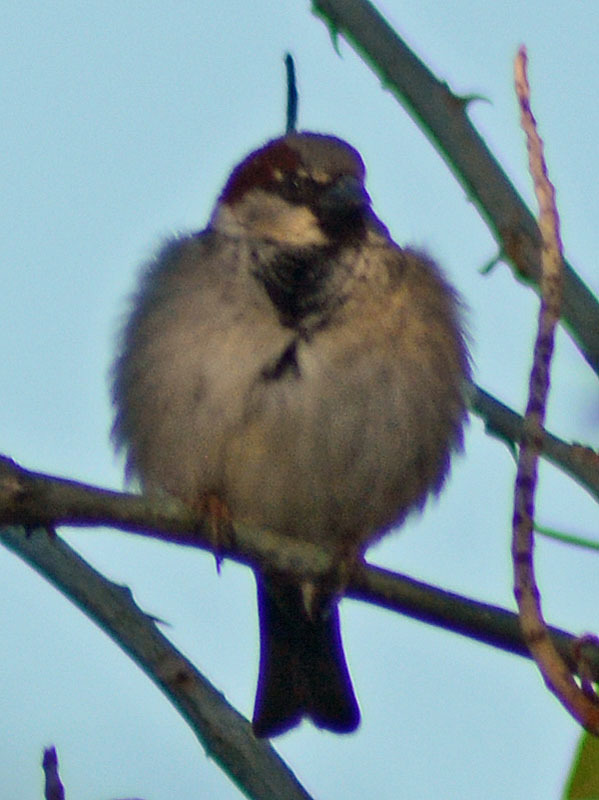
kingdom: Animalia
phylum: Chordata
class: Aves
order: Passeriformes
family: Passeridae
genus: Passer
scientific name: Passer domesticus
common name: House sparrow
